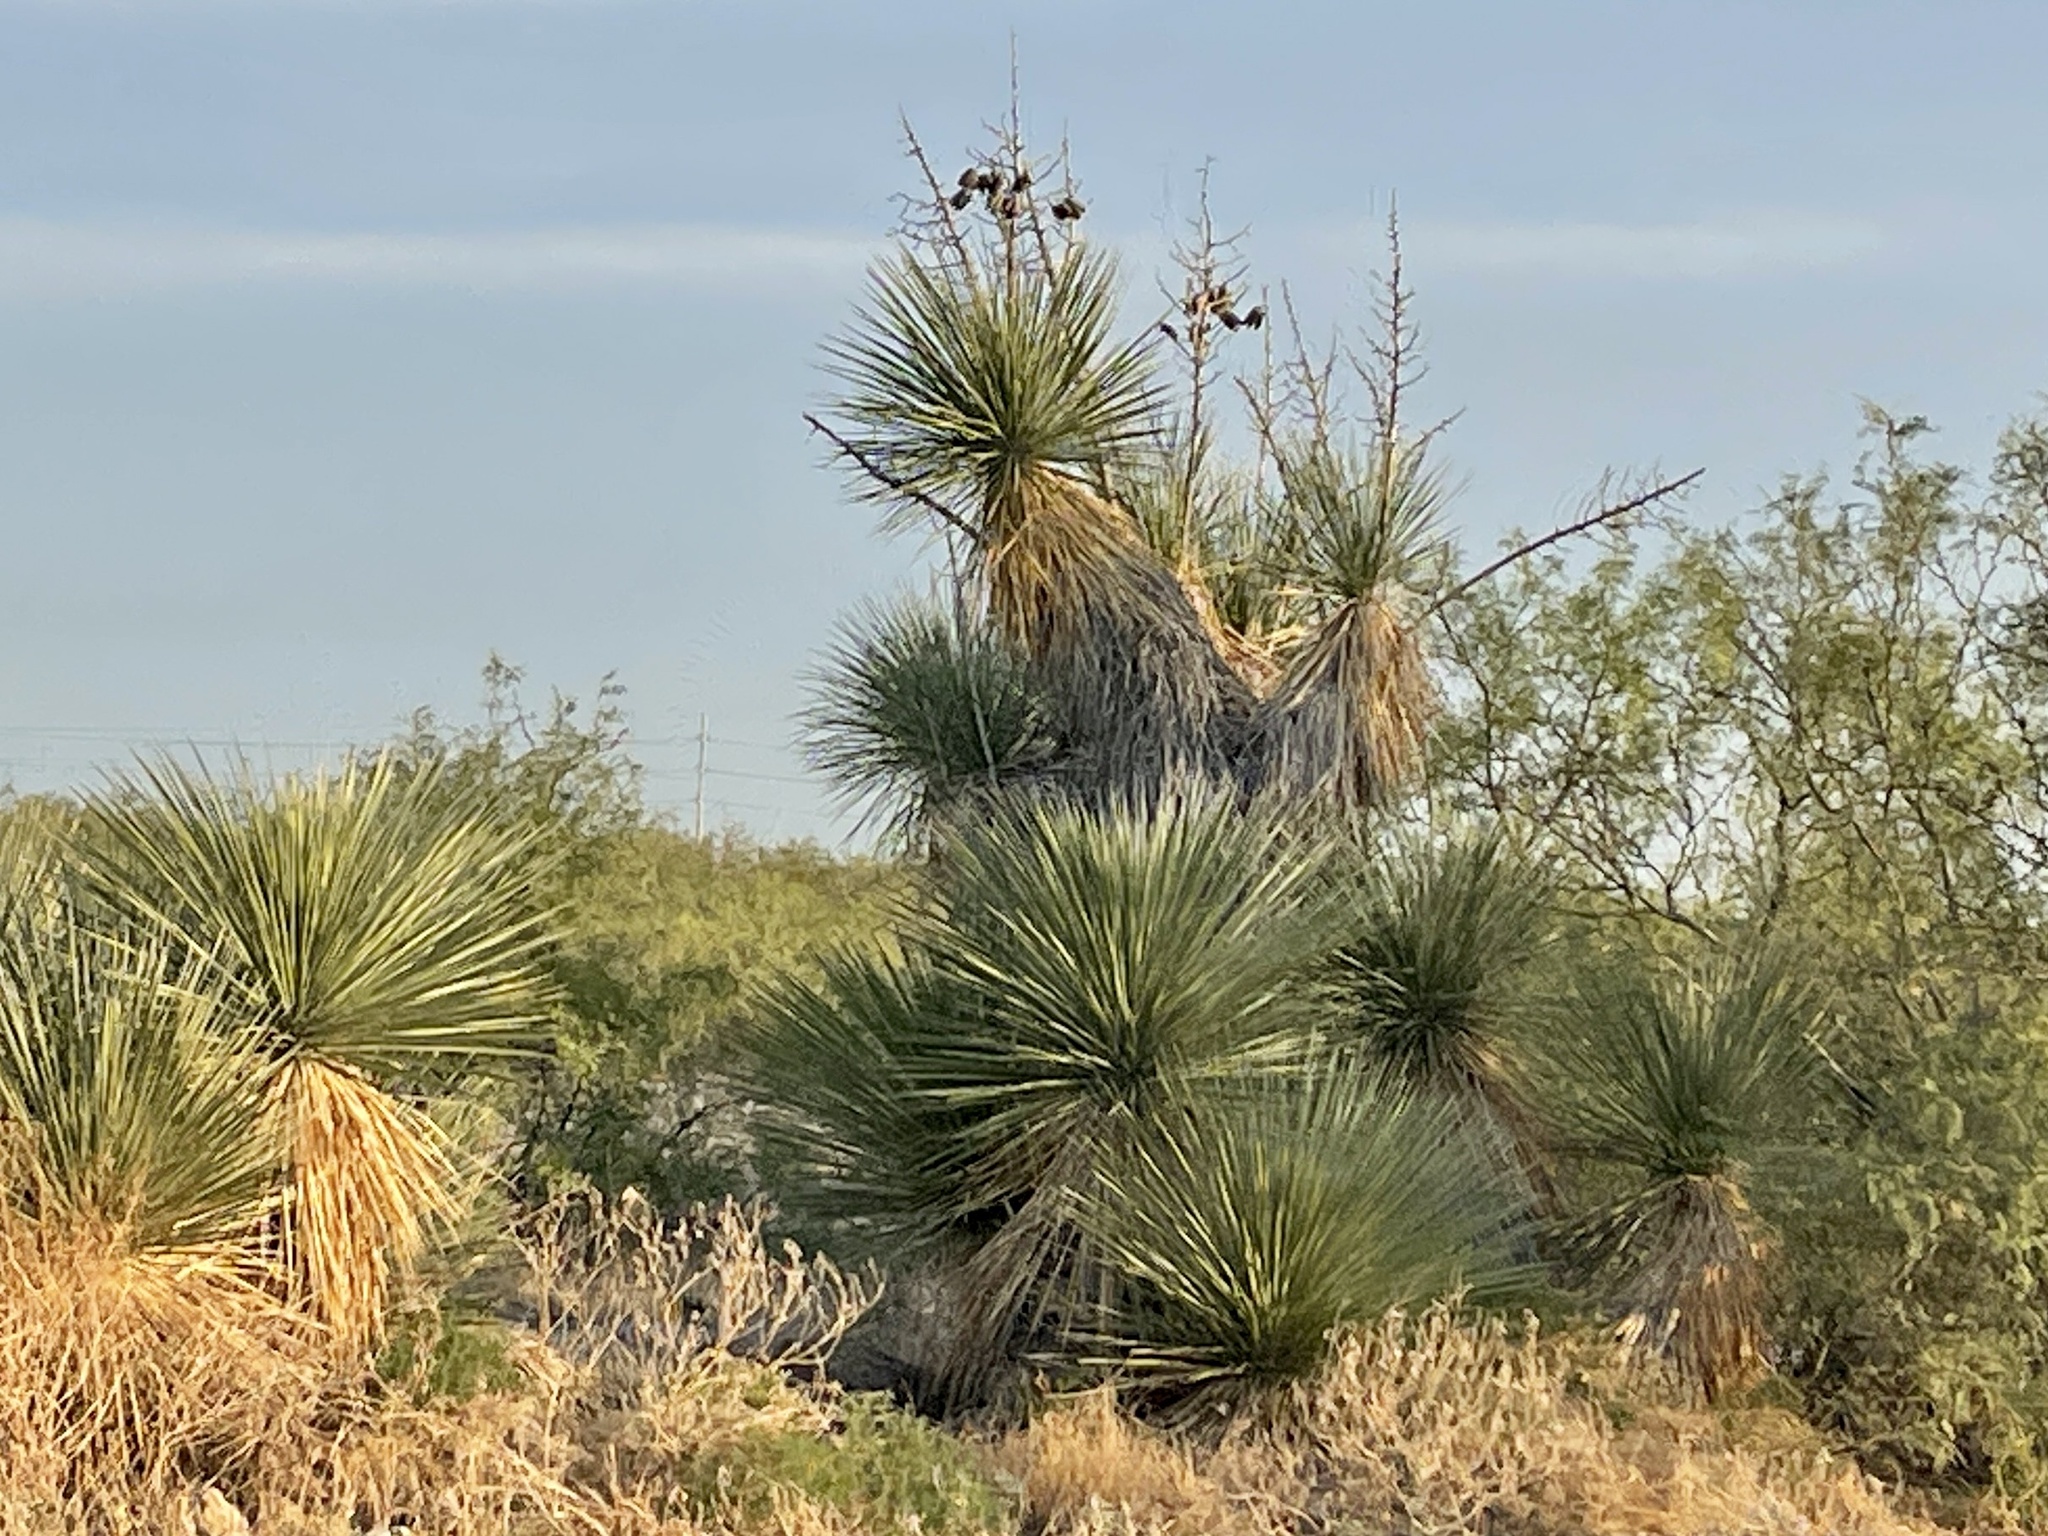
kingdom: Plantae
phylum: Tracheophyta
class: Liliopsida
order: Asparagales
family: Asparagaceae
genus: Yucca
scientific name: Yucca elata
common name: Palmella
